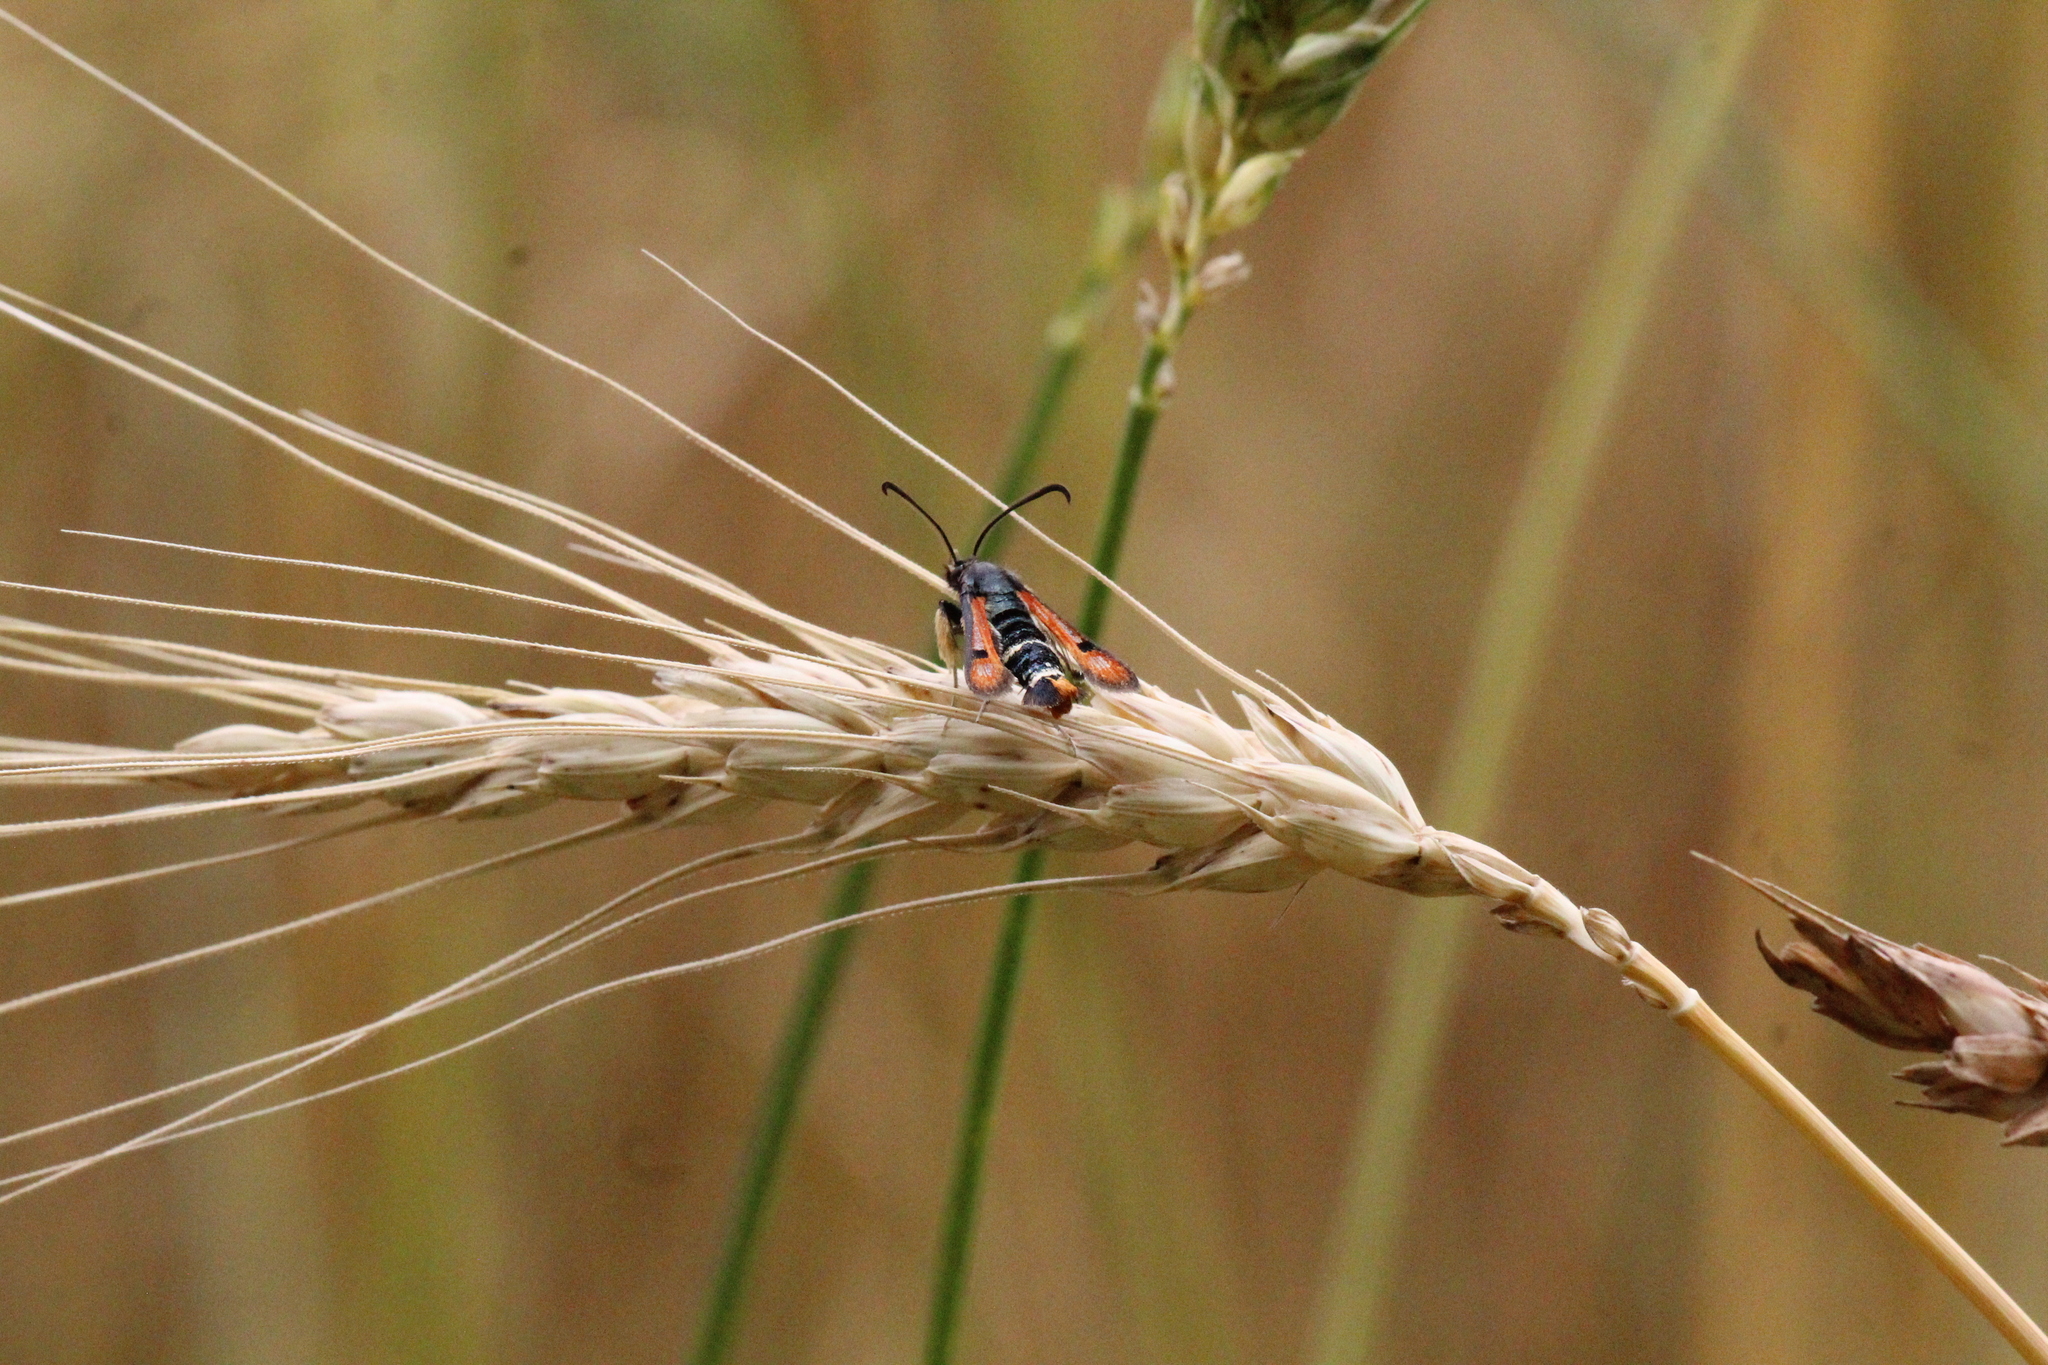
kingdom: Animalia
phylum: Arthropoda
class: Insecta
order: Lepidoptera
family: Sesiidae
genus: Pyropteron
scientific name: Pyropteron chrysidiforme
